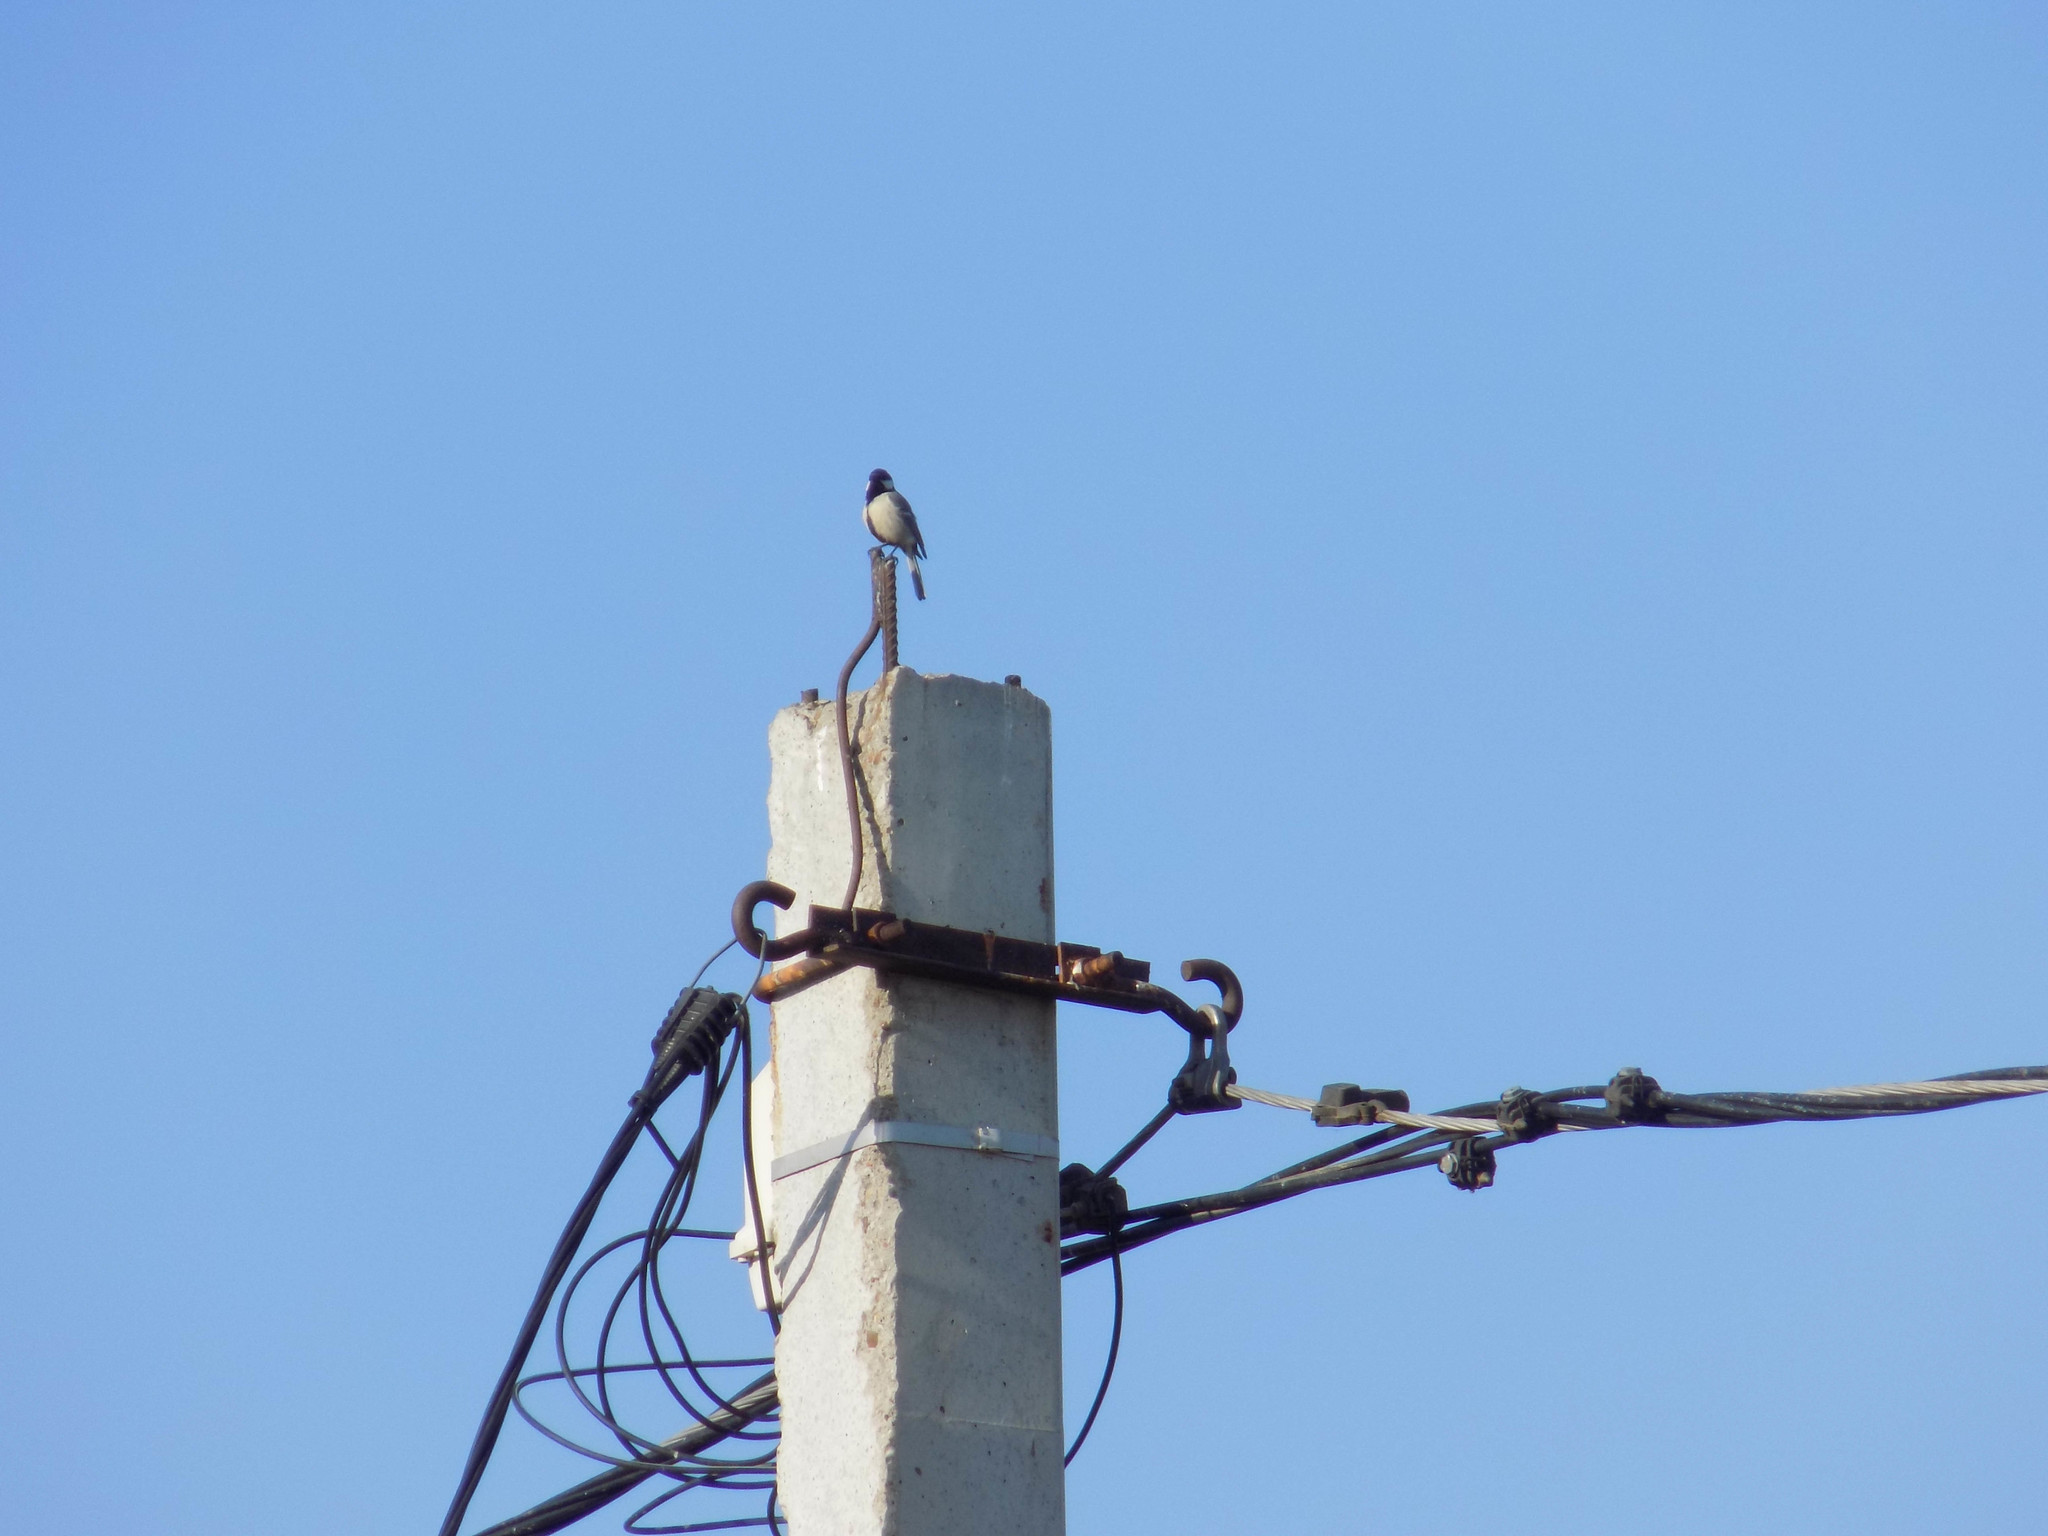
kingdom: Animalia
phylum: Chordata
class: Aves
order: Passeriformes
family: Paridae
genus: Parus
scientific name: Parus major
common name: Great tit
